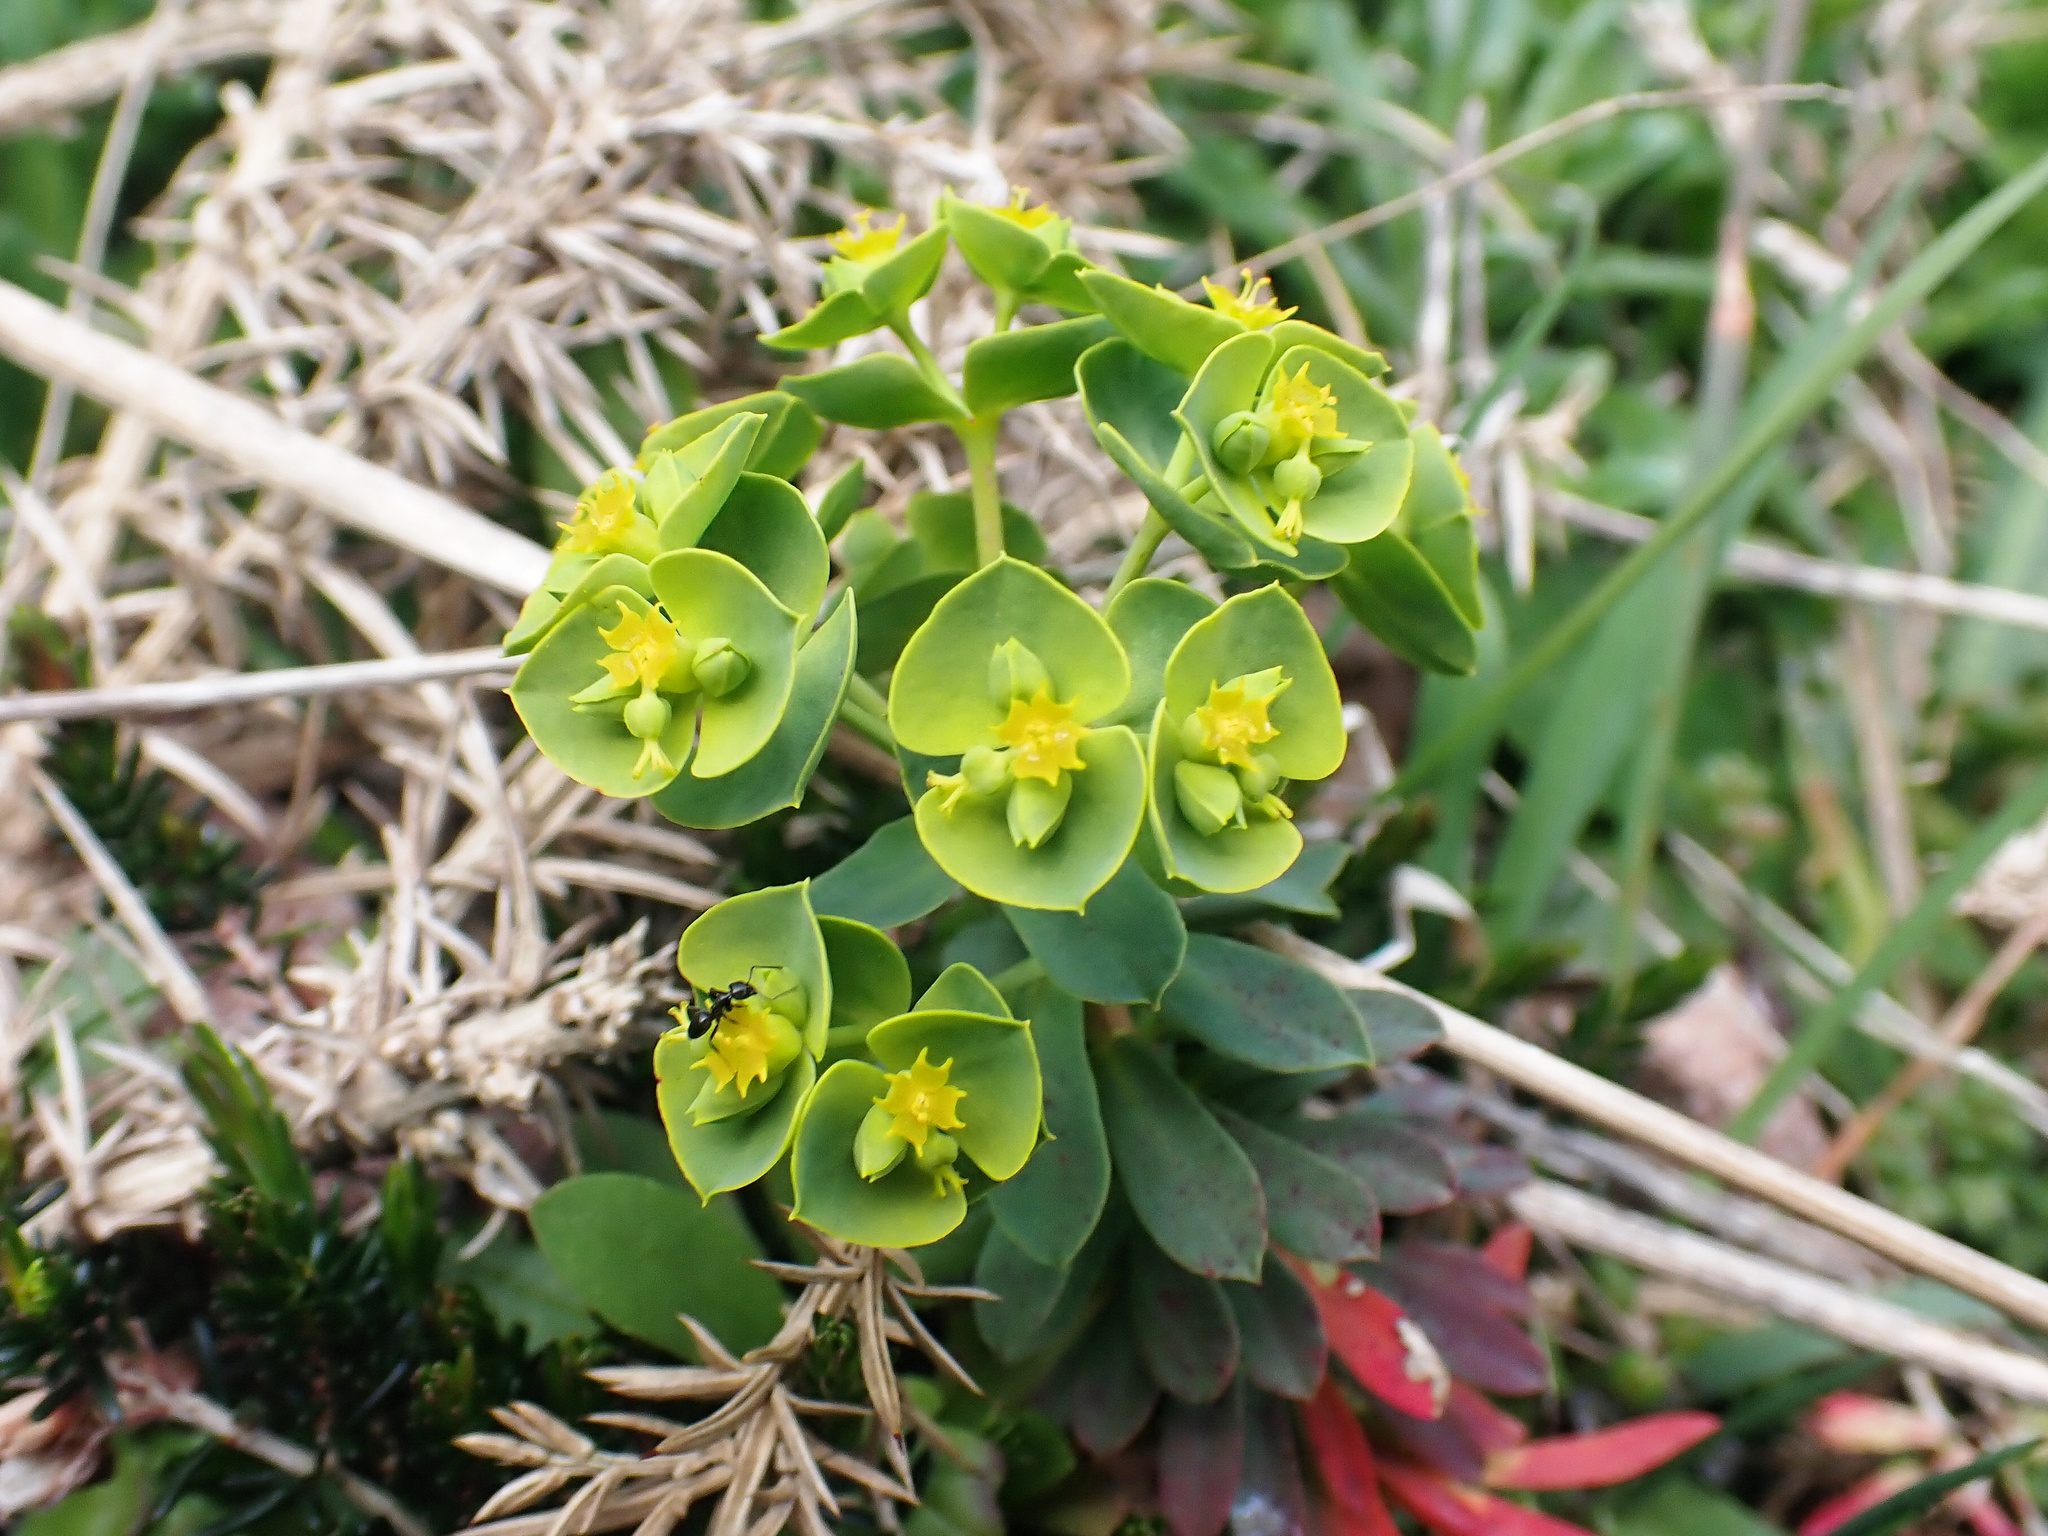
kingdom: Plantae
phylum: Tracheophyta
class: Magnoliopsida
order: Malpighiales
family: Euphorbiaceae
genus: Euphorbia
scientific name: Euphorbia portlandica
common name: Portland spurge
